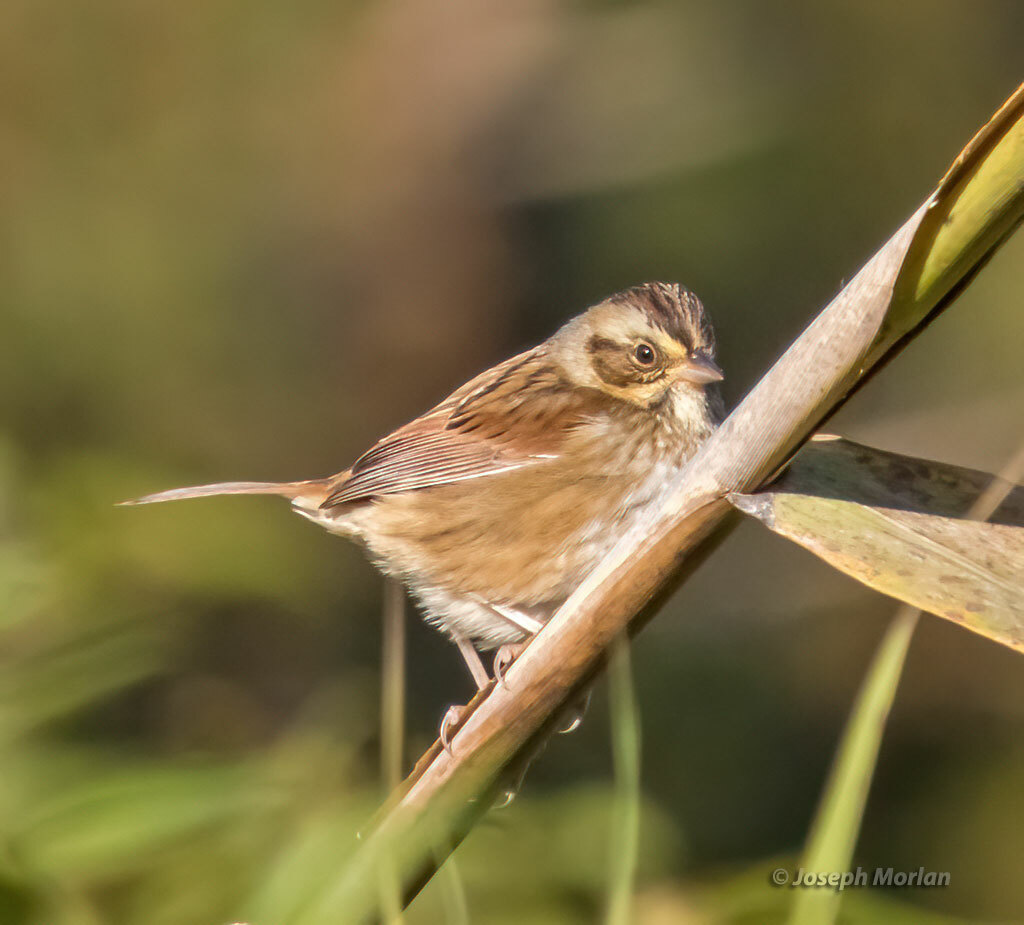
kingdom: Animalia
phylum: Chordata
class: Aves
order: Passeriformes
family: Passerellidae
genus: Melospiza
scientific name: Melospiza georgiana
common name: Swamp sparrow
